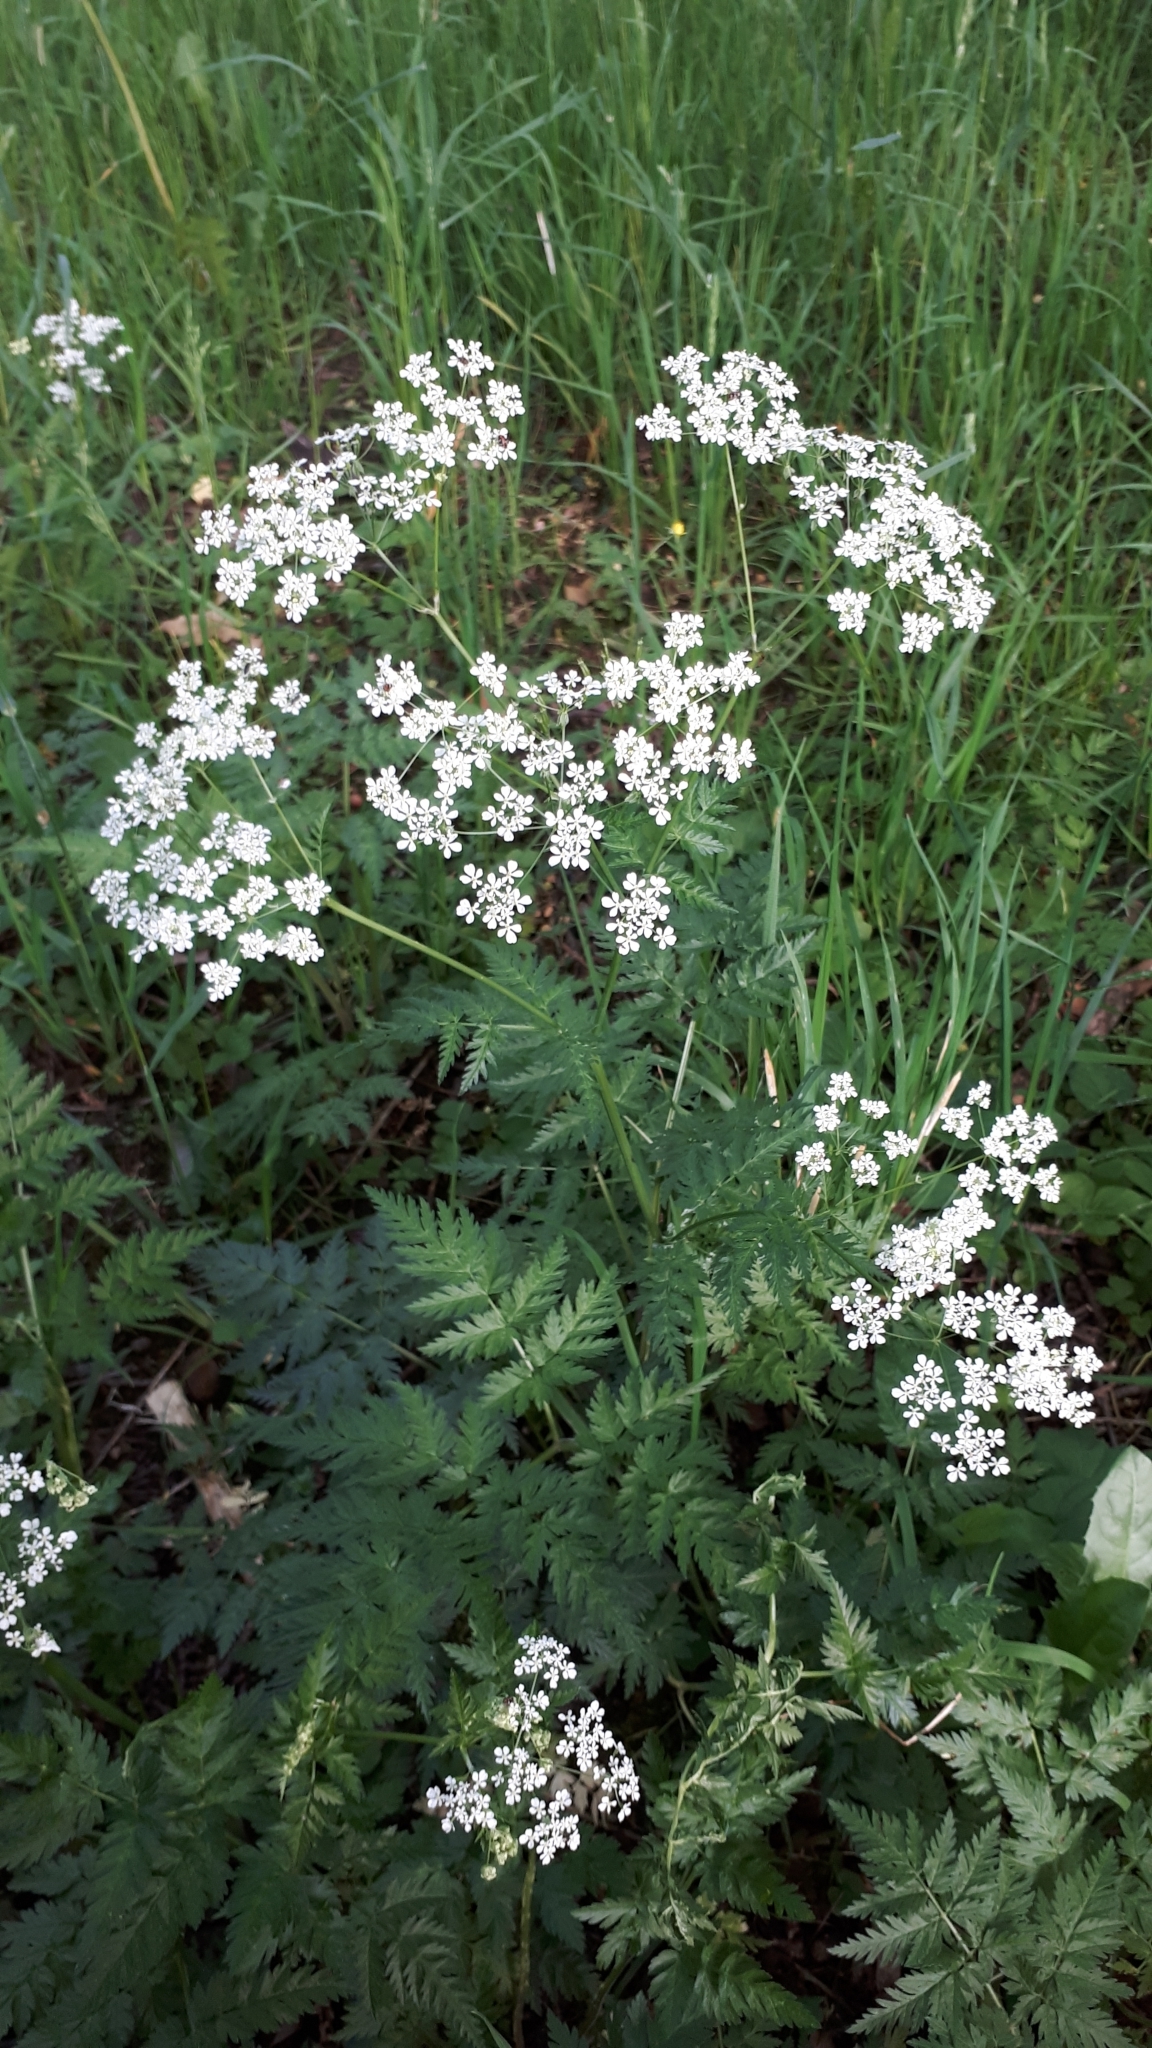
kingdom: Plantae
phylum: Tracheophyta
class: Magnoliopsida
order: Apiales
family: Apiaceae
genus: Anthriscus
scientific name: Anthriscus sylvestris
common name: Cow parsley
